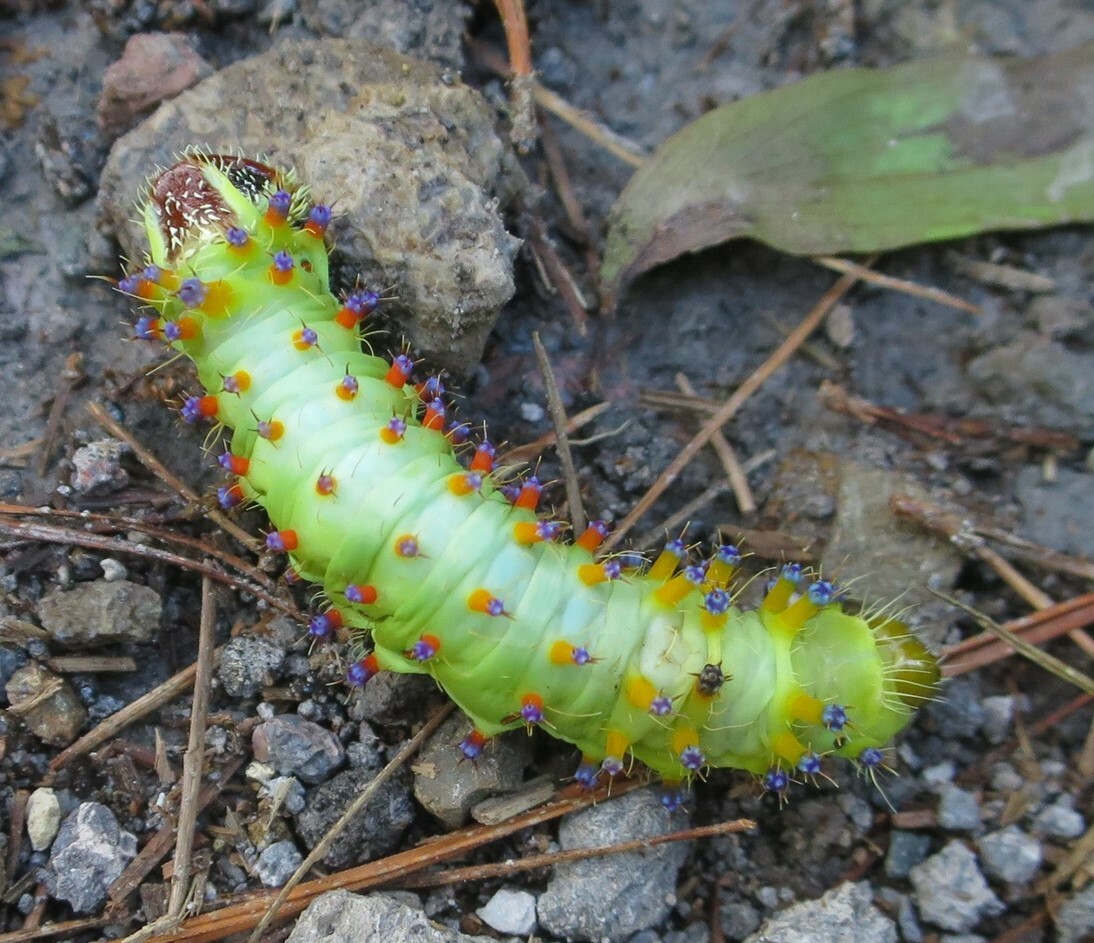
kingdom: Animalia
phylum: Arthropoda
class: Insecta
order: Lepidoptera
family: Saturniidae
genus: Opodiphthera
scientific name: Opodiphthera
